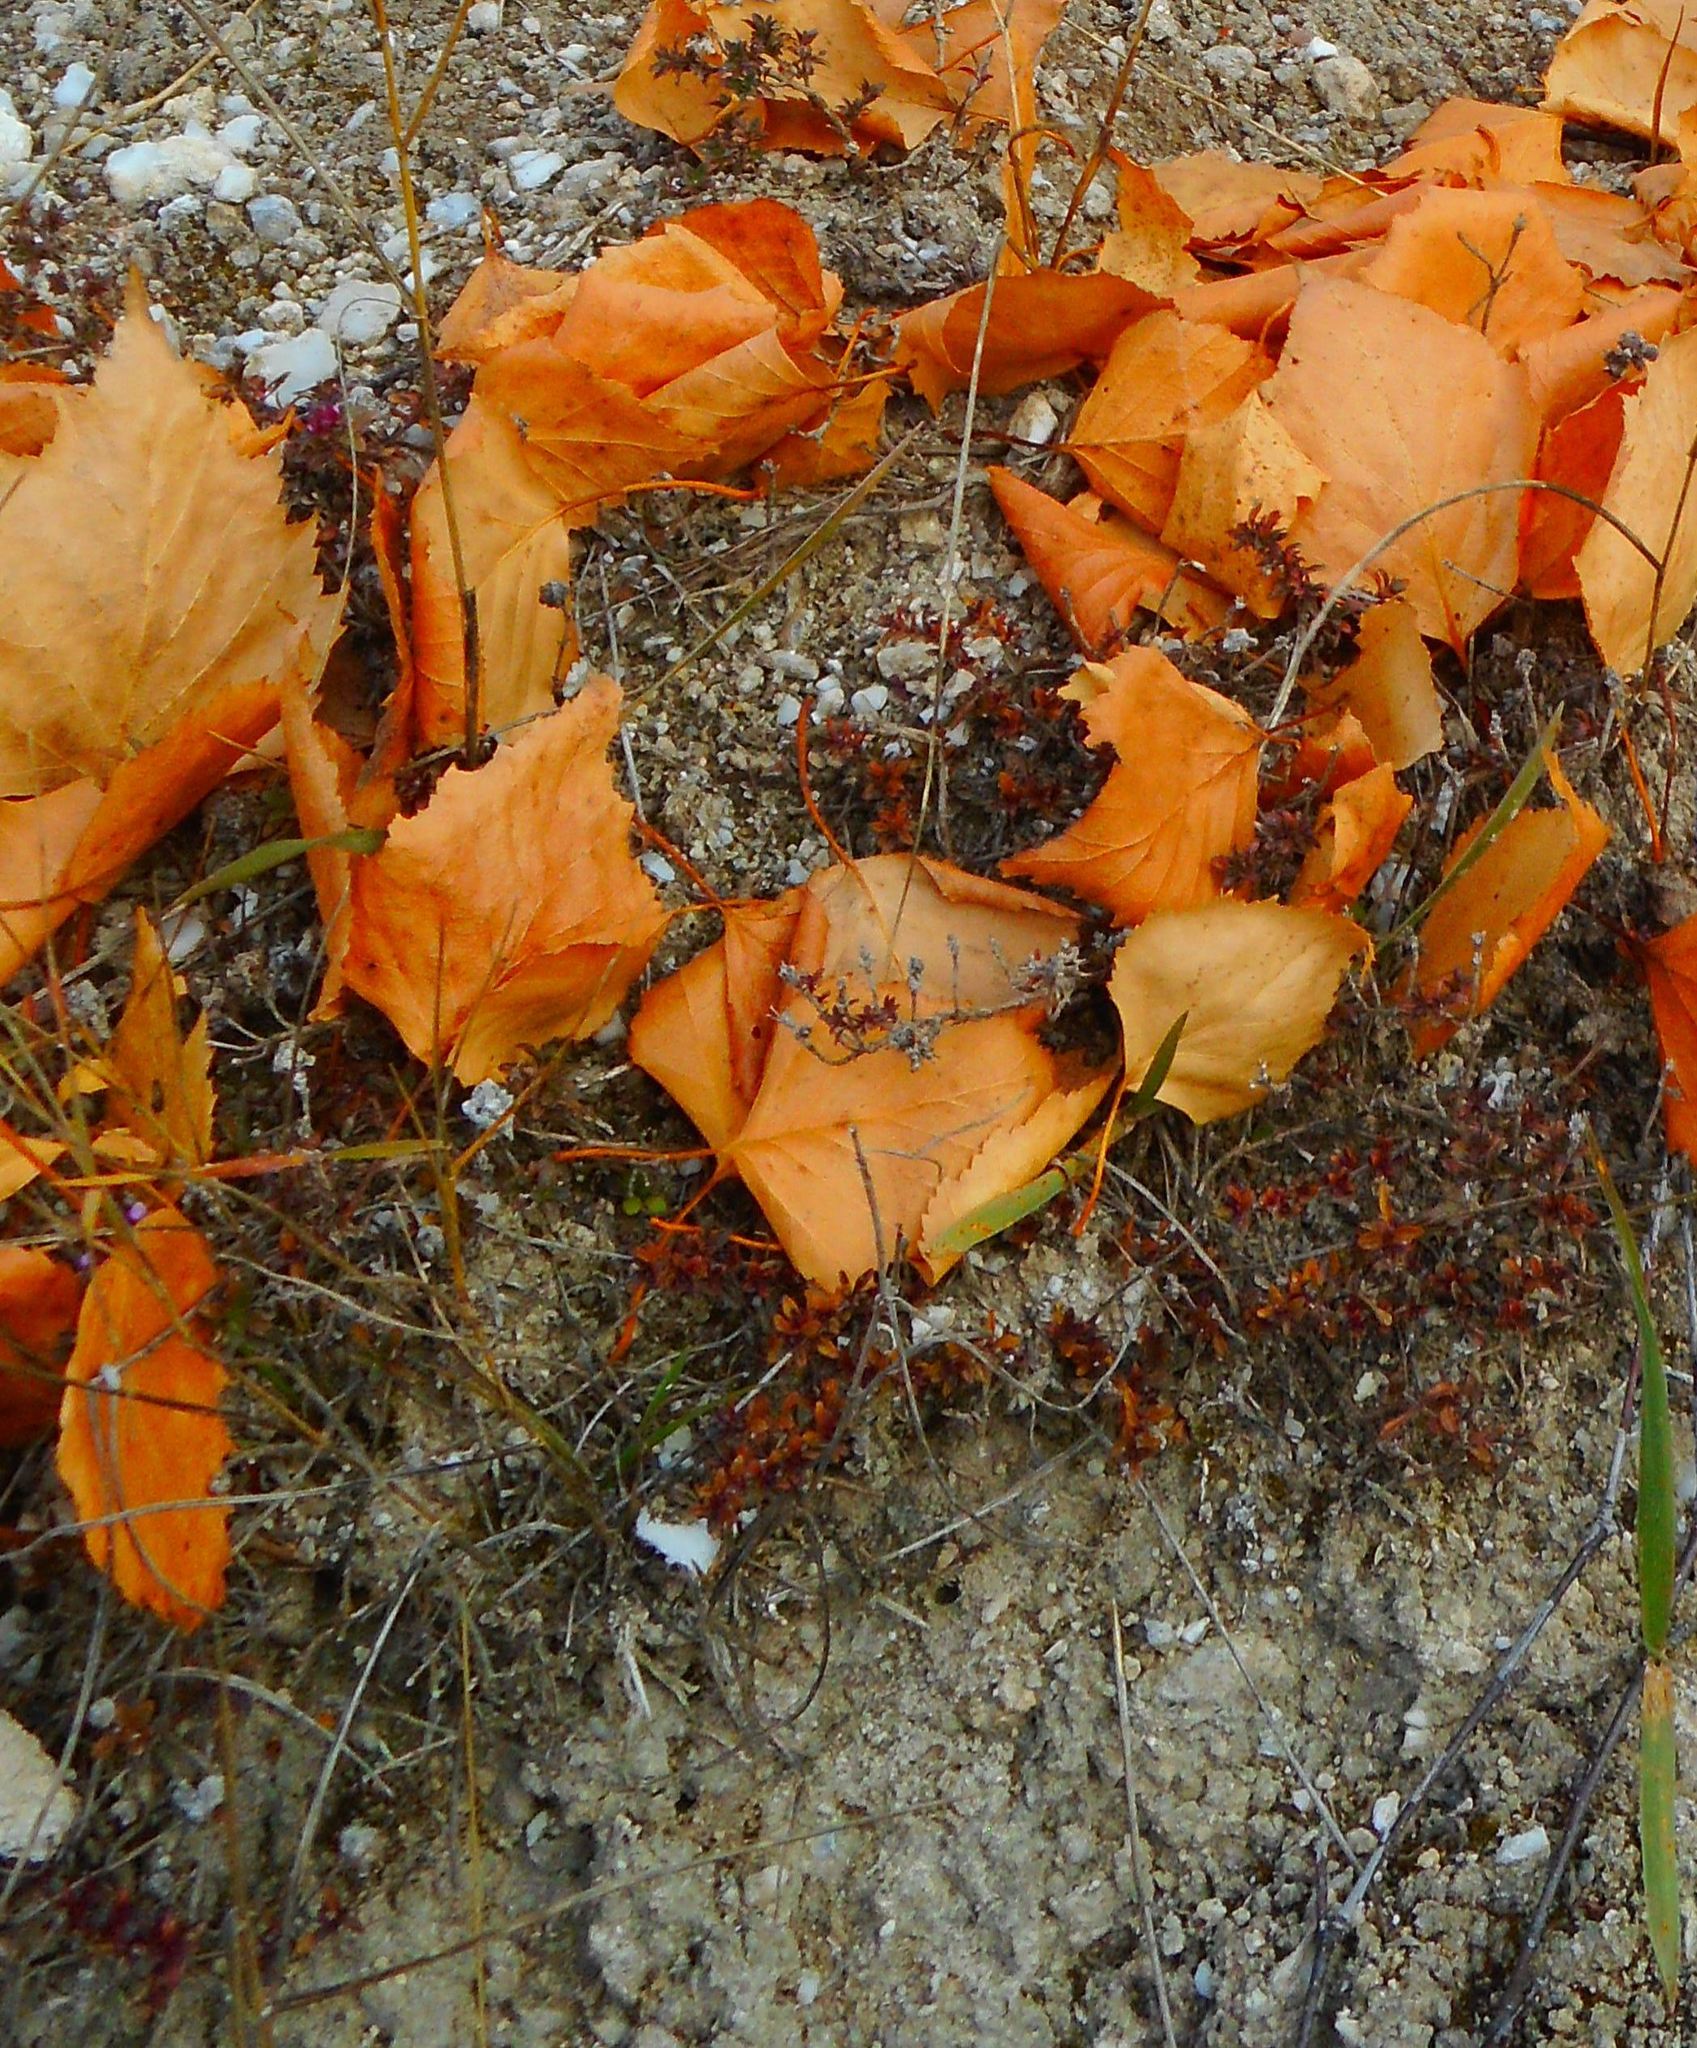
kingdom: Plantae
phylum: Tracheophyta
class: Magnoliopsida
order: Malvales
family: Cistaceae
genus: Helianthemum
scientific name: Helianthemum nummularium
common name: Common rock-rose
